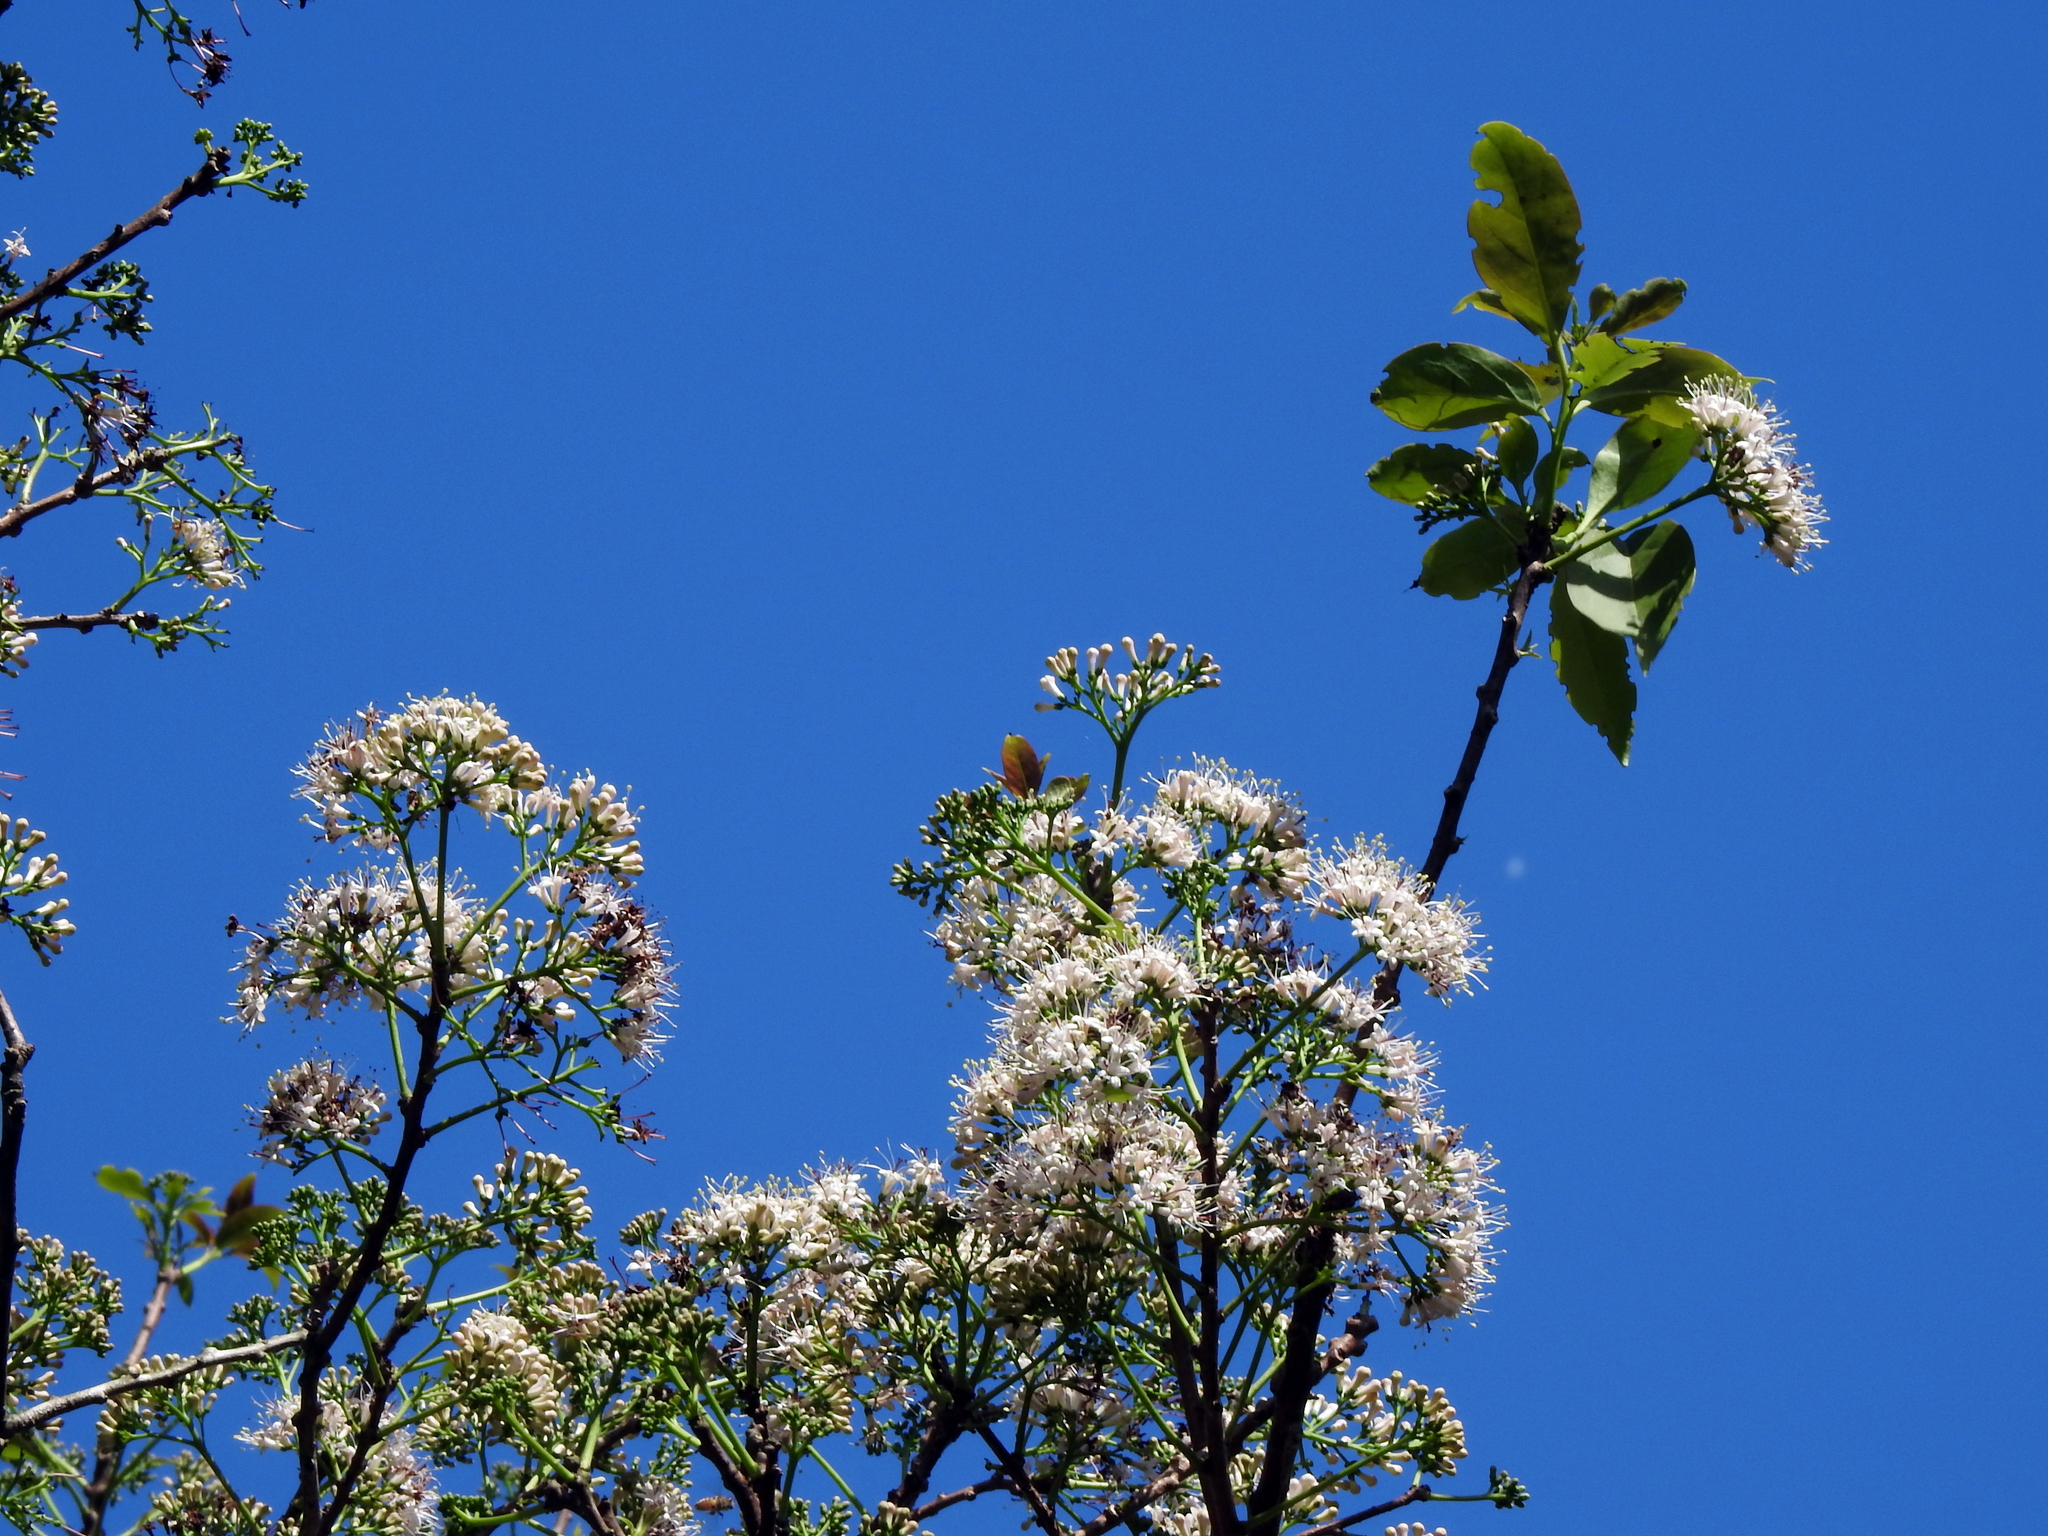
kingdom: Plantae
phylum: Tracheophyta
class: Magnoliopsida
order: Boraginales
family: Ehretiaceae
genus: Ehretia
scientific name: Ehretia longiflora
